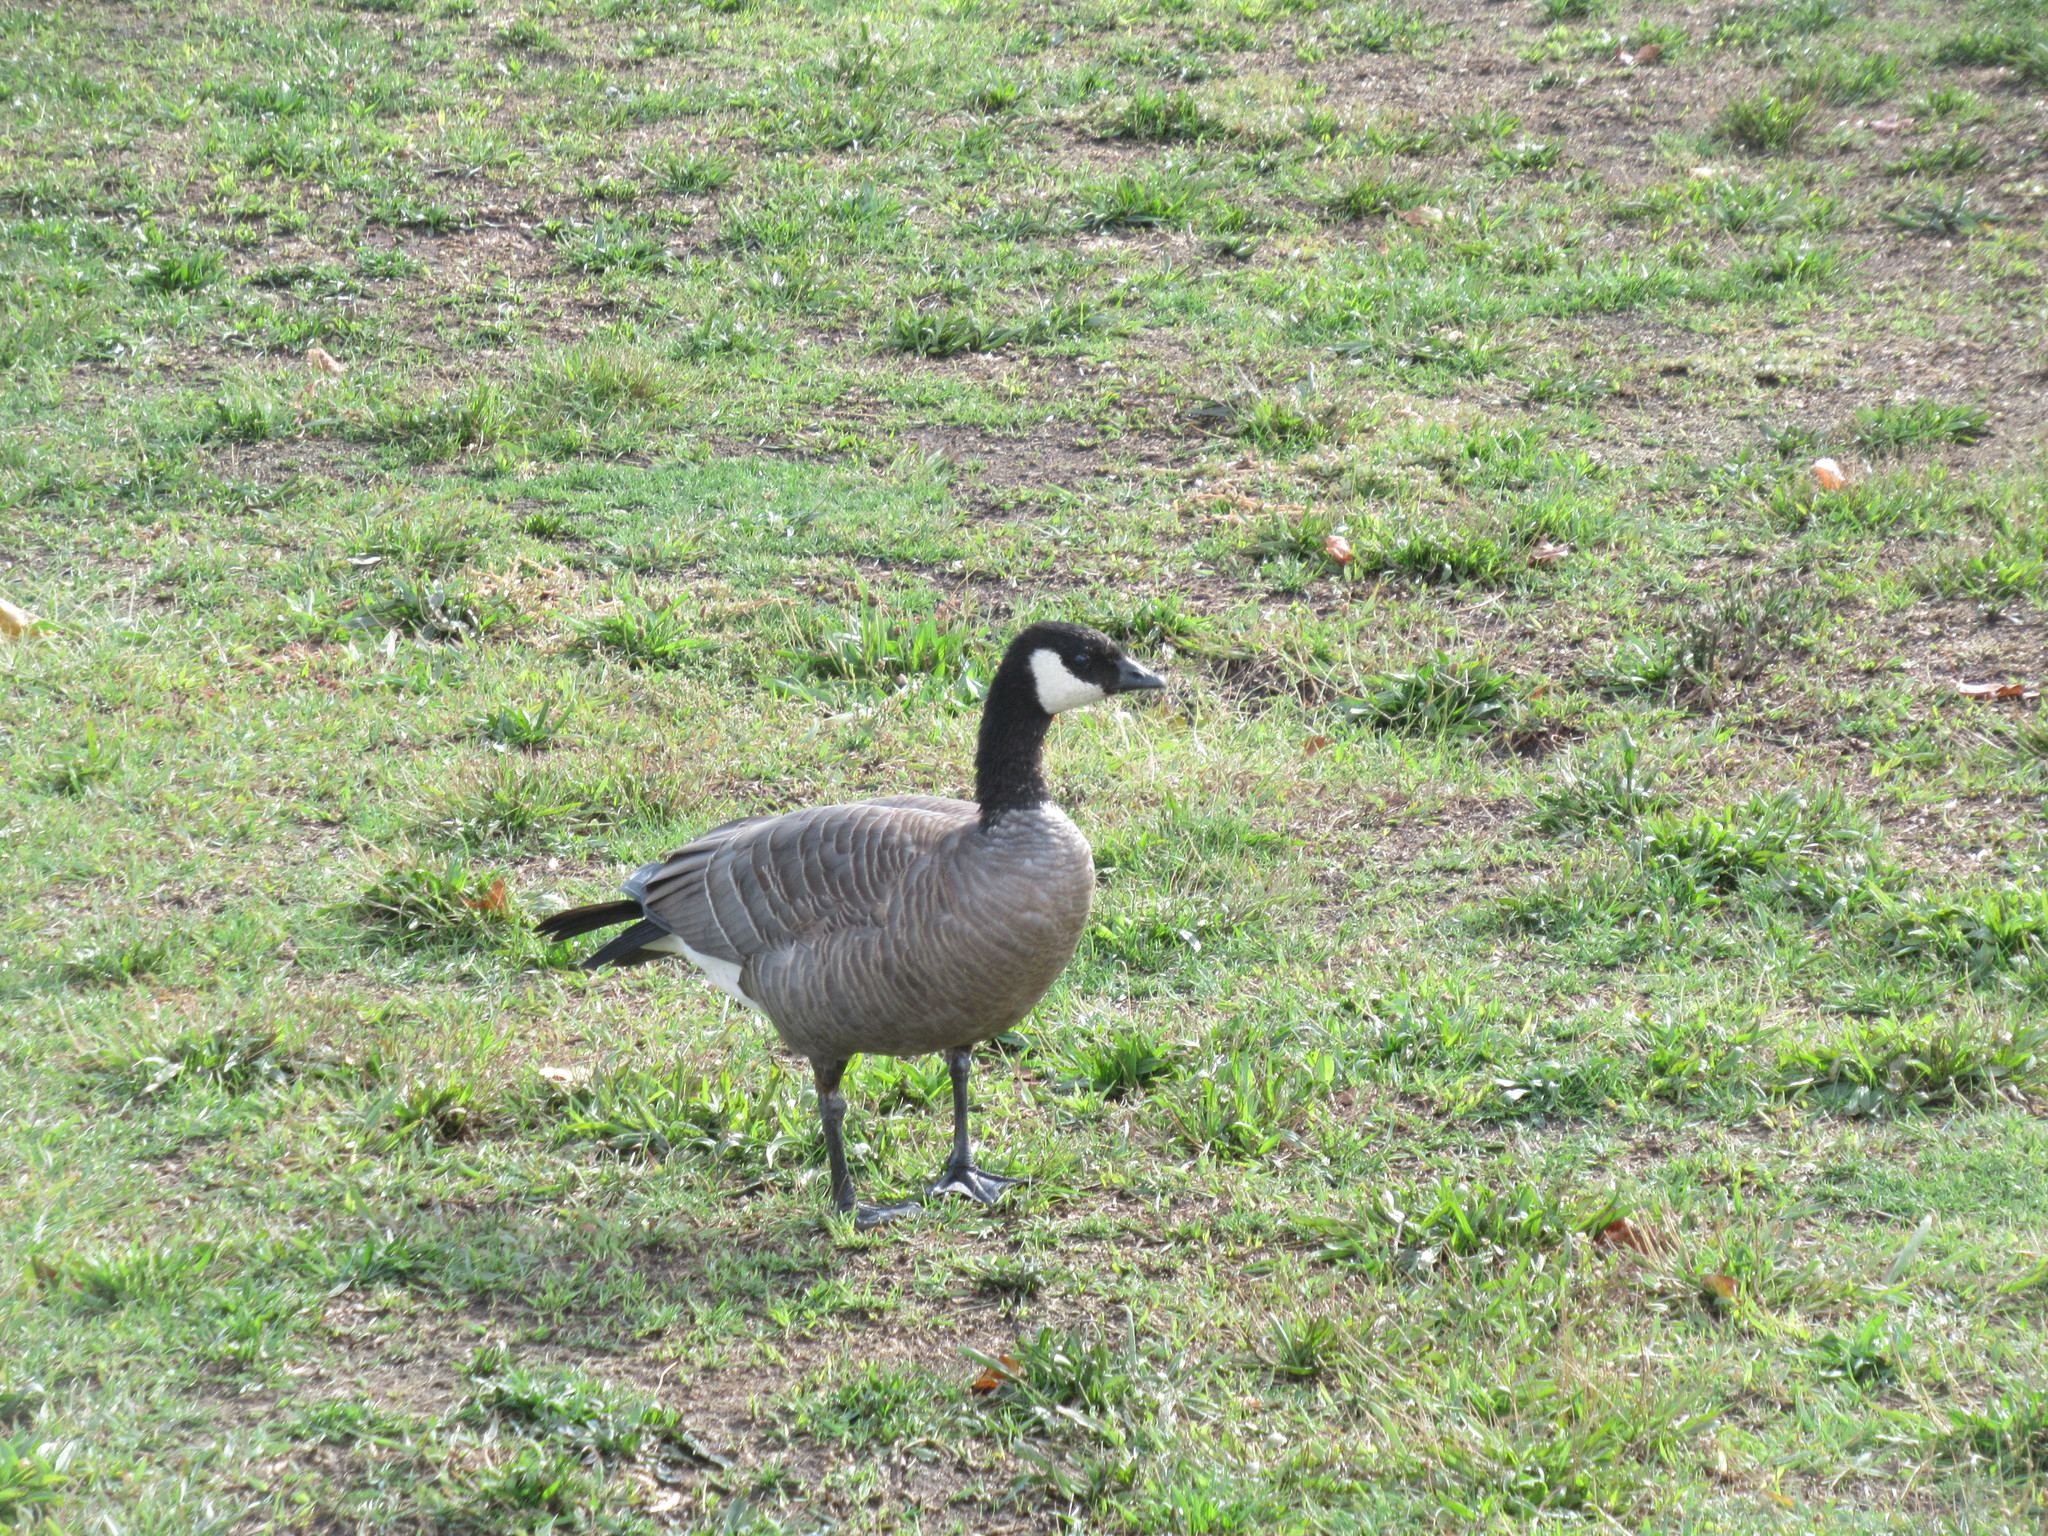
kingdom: Animalia
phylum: Chordata
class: Aves
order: Anseriformes
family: Anatidae
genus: Branta
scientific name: Branta hutchinsii
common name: Cackling goose
